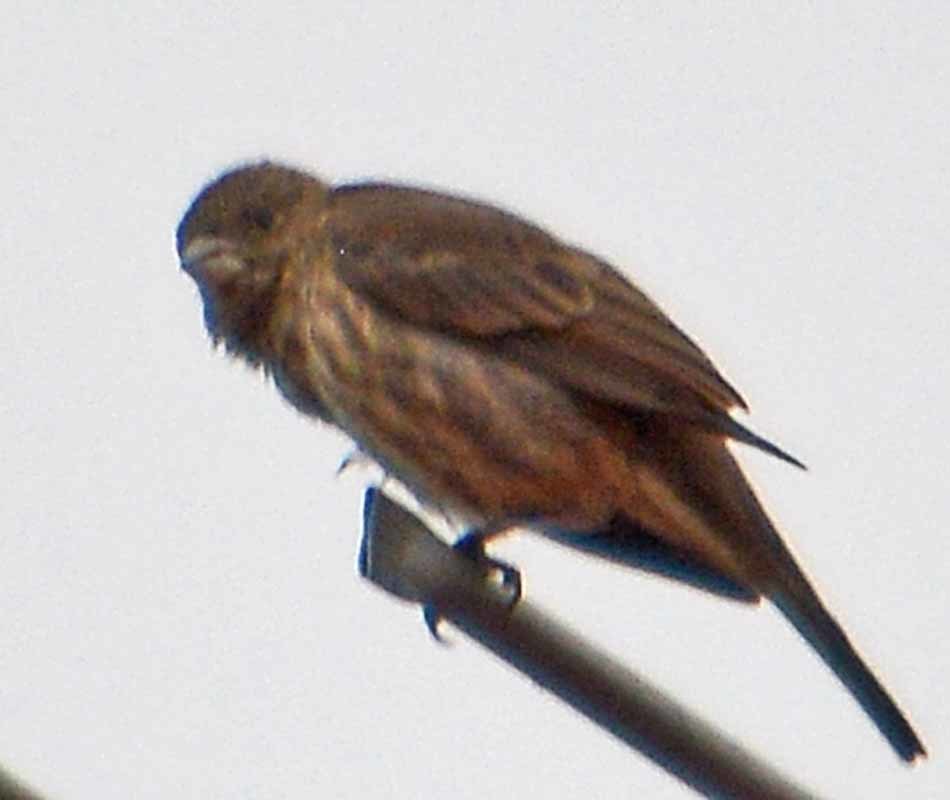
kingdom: Animalia
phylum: Chordata
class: Aves
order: Passeriformes
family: Fringillidae
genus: Haemorhous
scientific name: Haemorhous mexicanus
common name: House finch
